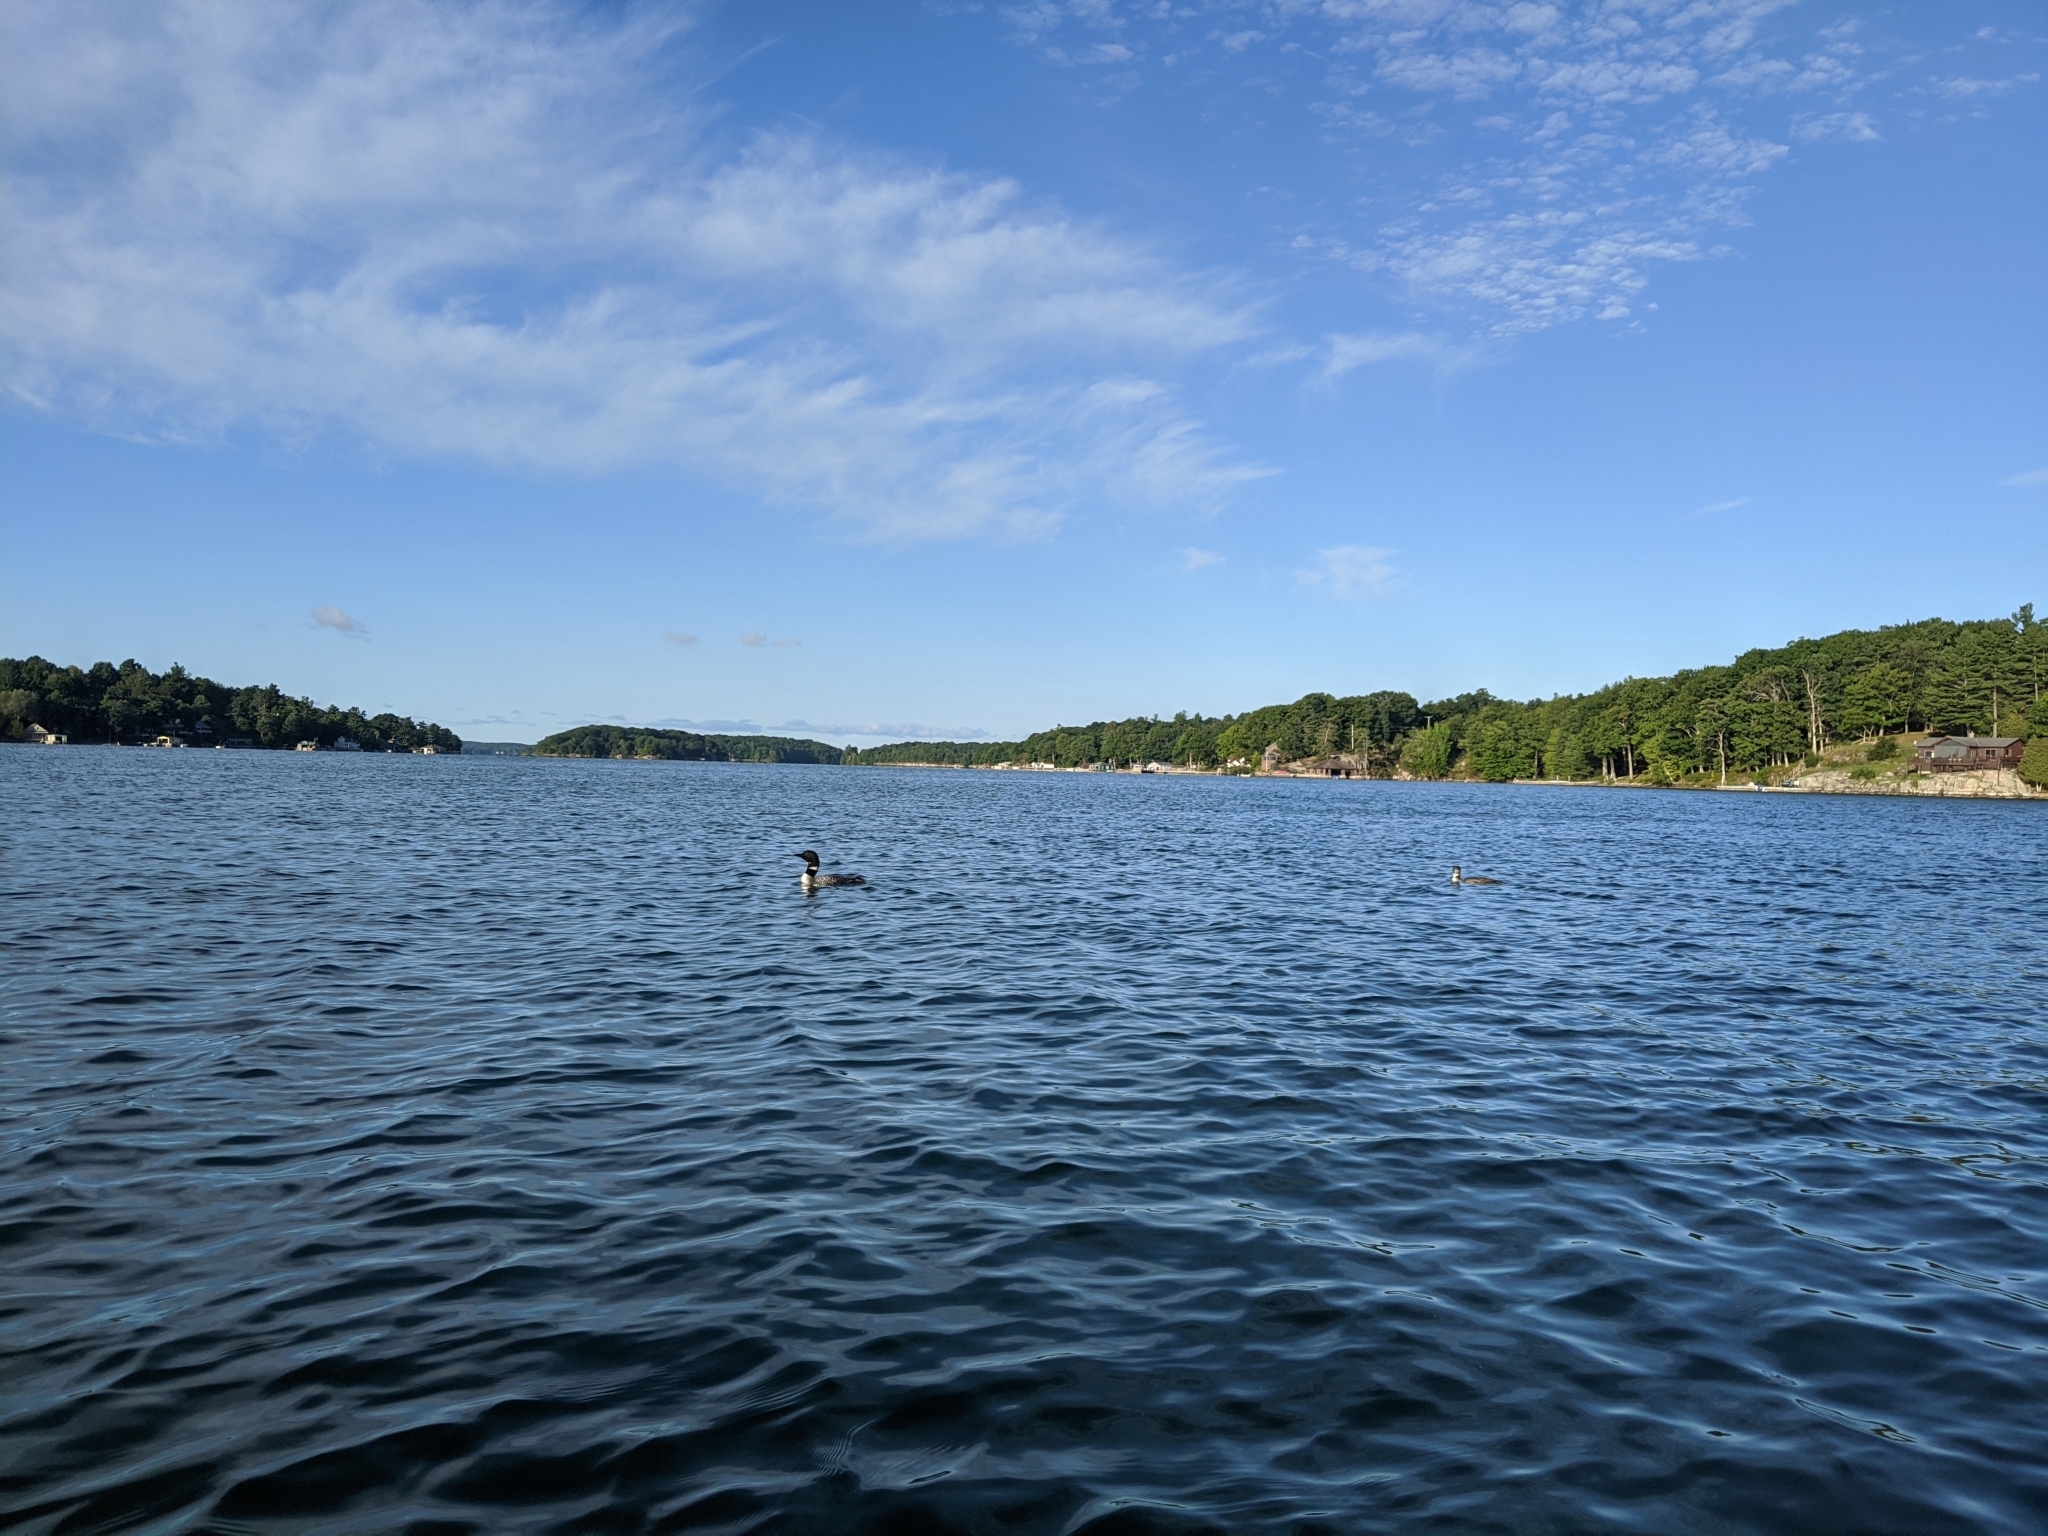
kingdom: Animalia
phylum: Chordata
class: Aves
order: Gaviiformes
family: Gaviidae
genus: Gavia
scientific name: Gavia immer
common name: Common loon
